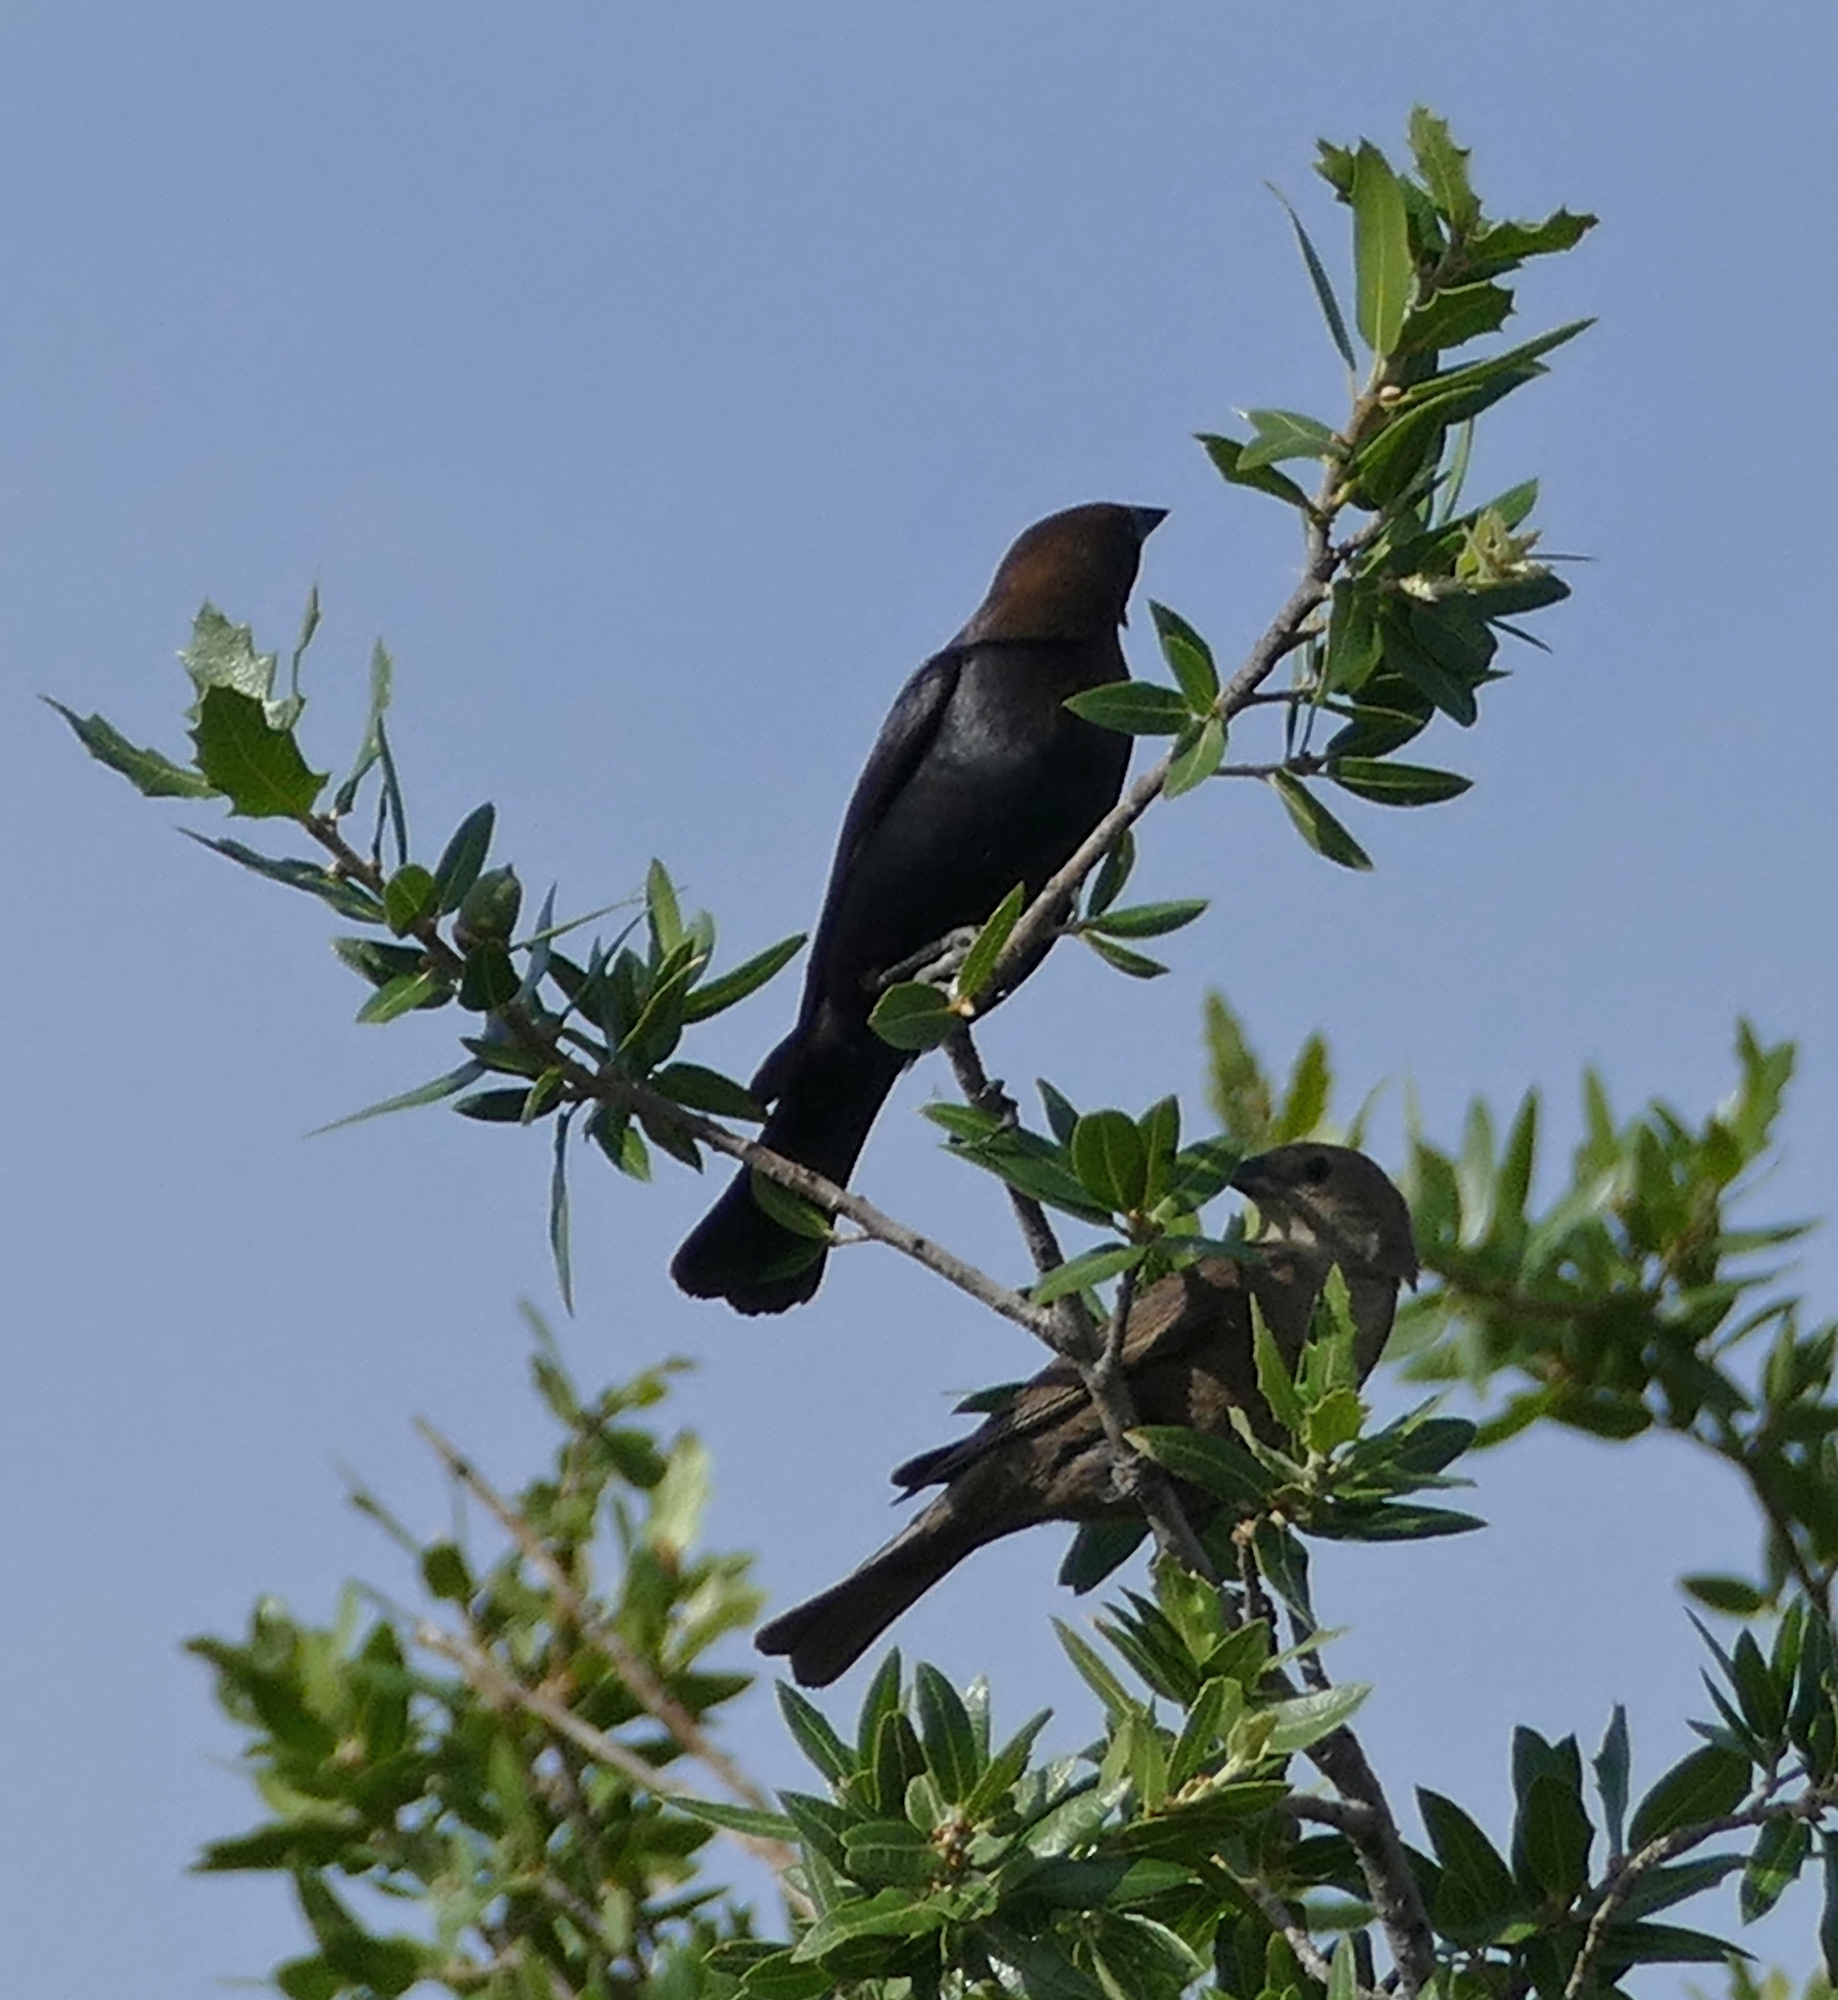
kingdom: Animalia
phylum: Chordata
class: Aves
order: Passeriformes
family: Icteridae
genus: Molothrus
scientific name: Molothrus ater
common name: Brown-headed cowbird
